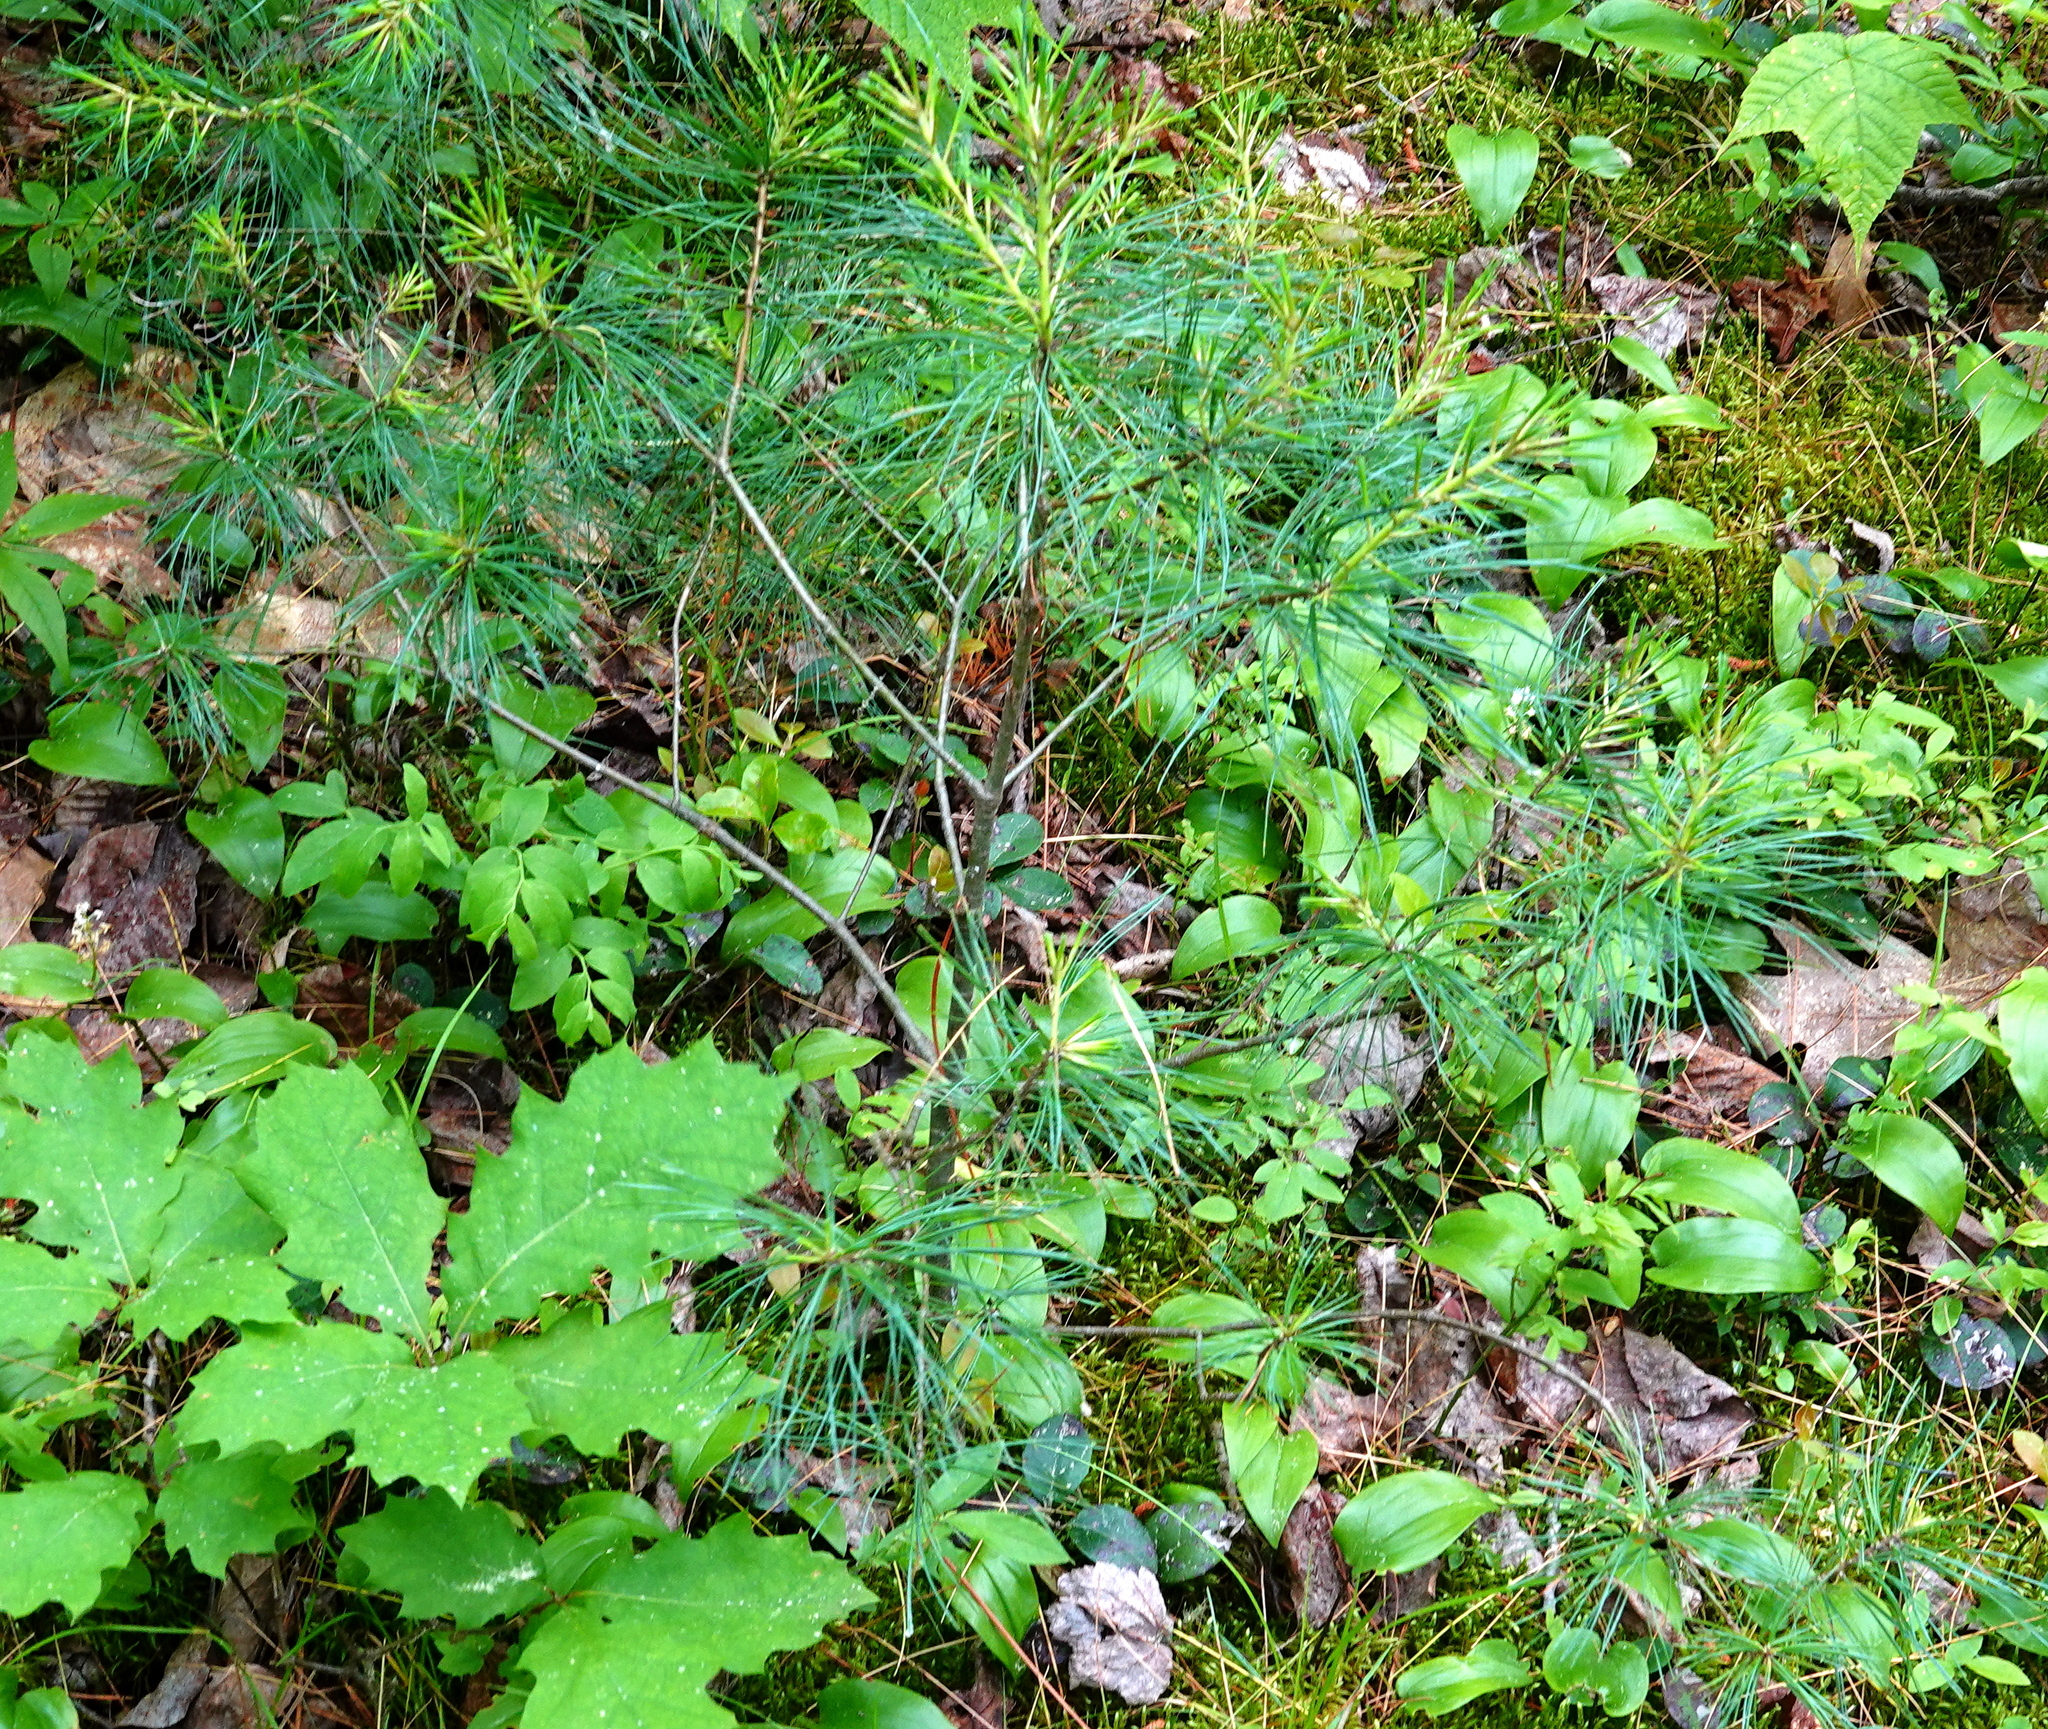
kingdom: Plantae
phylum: Tracheophyta
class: Pinopsida
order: Pinales
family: Pinaceae
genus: Pinus
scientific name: Pinus strobus
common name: Weymouth pine
